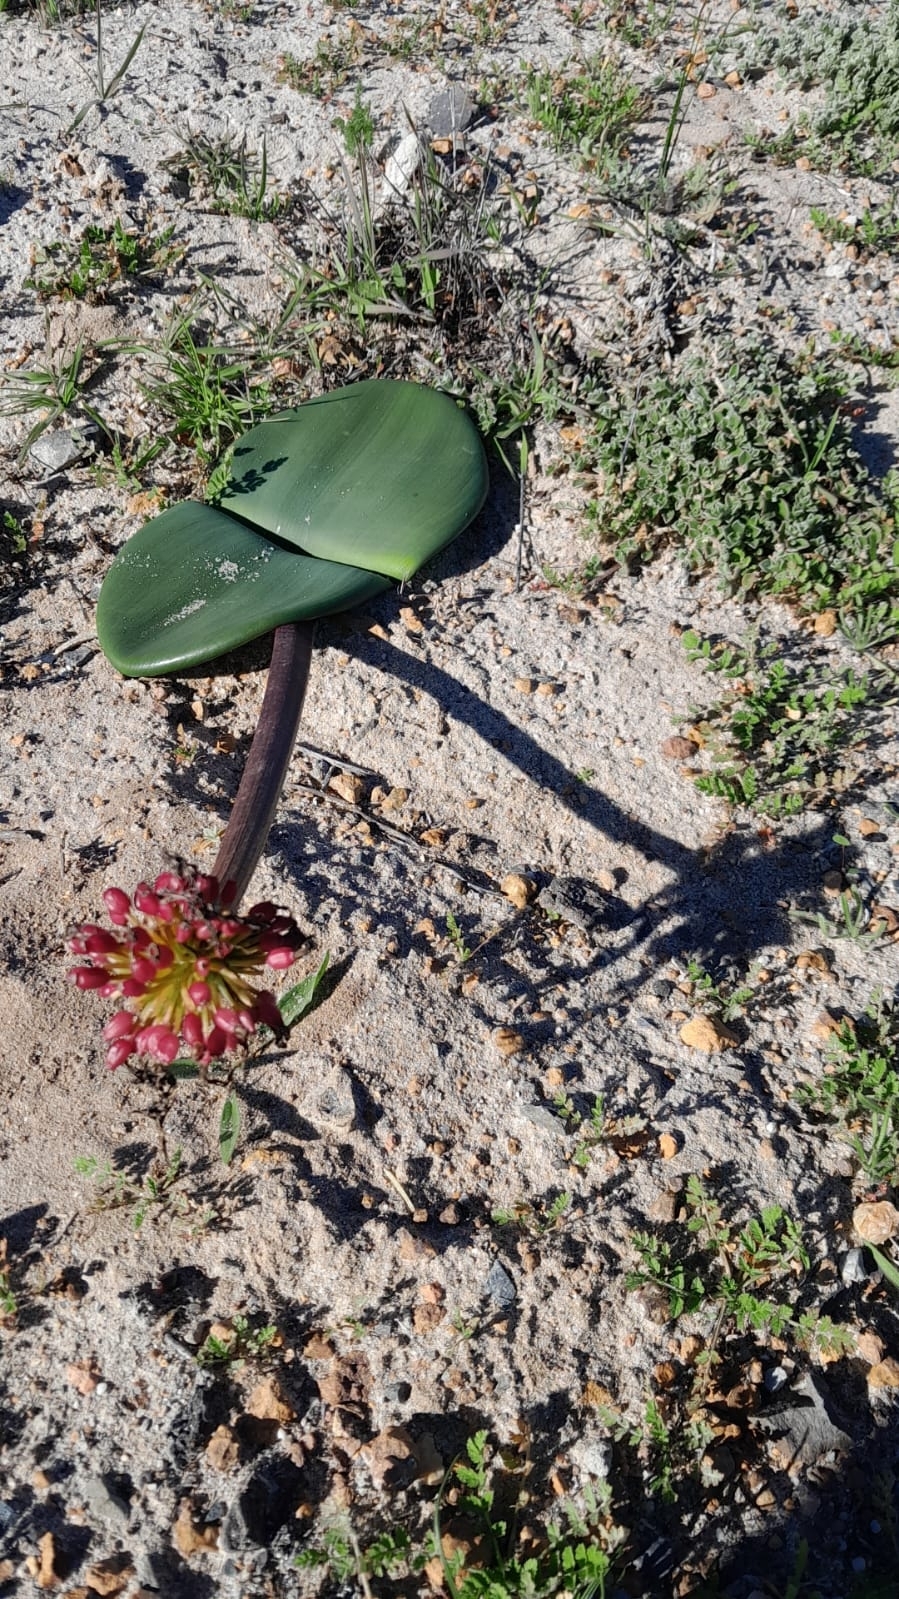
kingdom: Plantae
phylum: Tracheophyta
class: Liliopsida
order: Asparagales
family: Amaryllidaceae
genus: Haemanthus
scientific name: Haemanthus coccineus
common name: Cape-tulip
